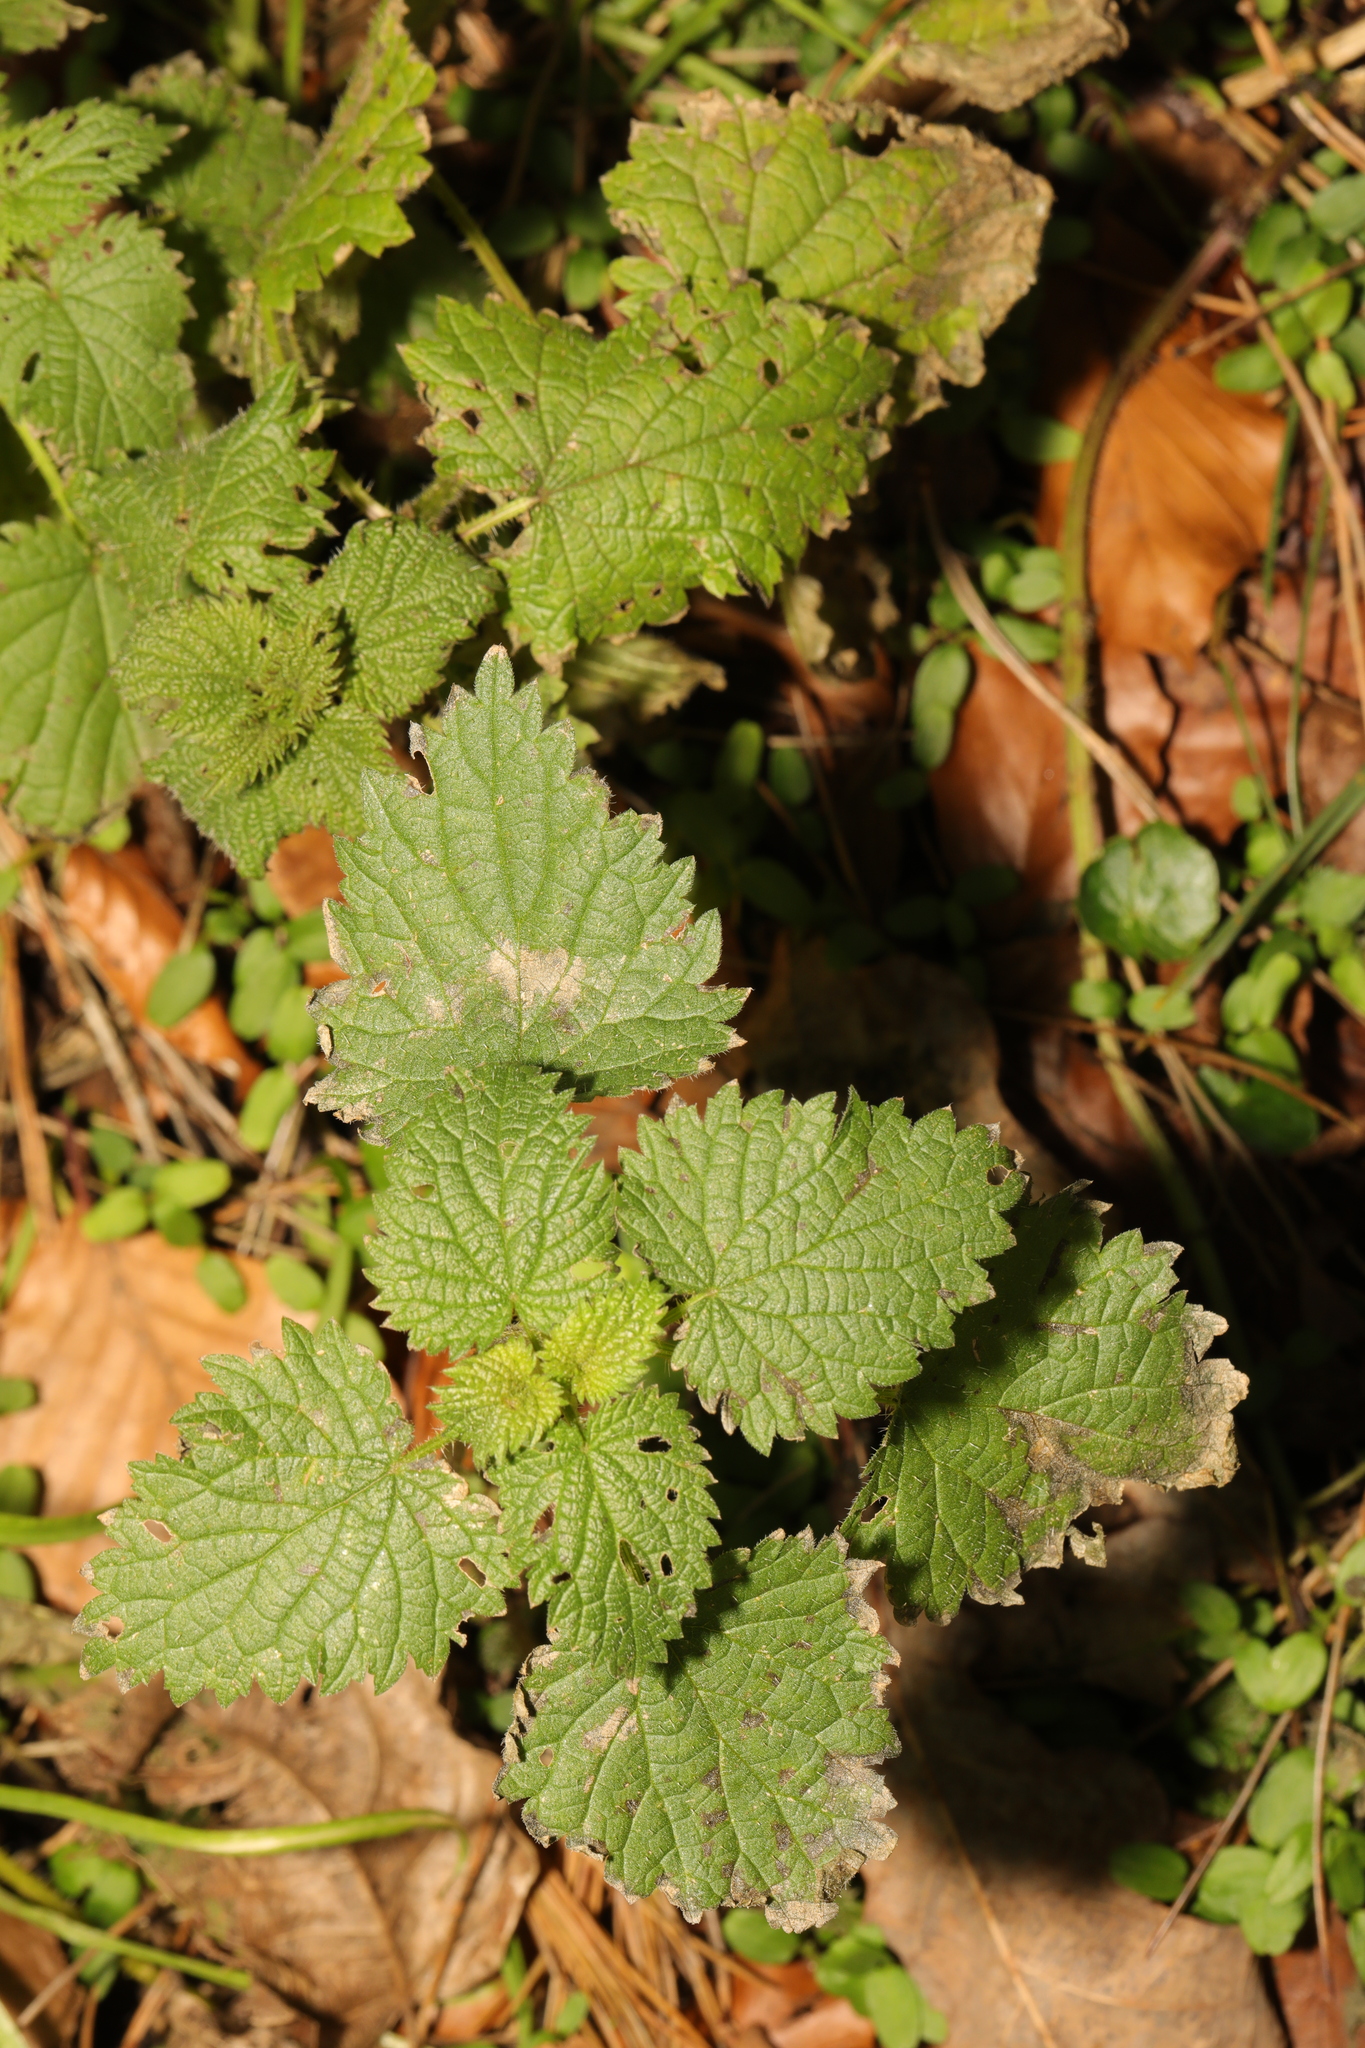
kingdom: Plantae
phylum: Tracheophyta
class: Magnoliopsida
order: Rosales
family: Urticaceae
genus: Urtica
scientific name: Urtica dioica
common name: Common nettle
